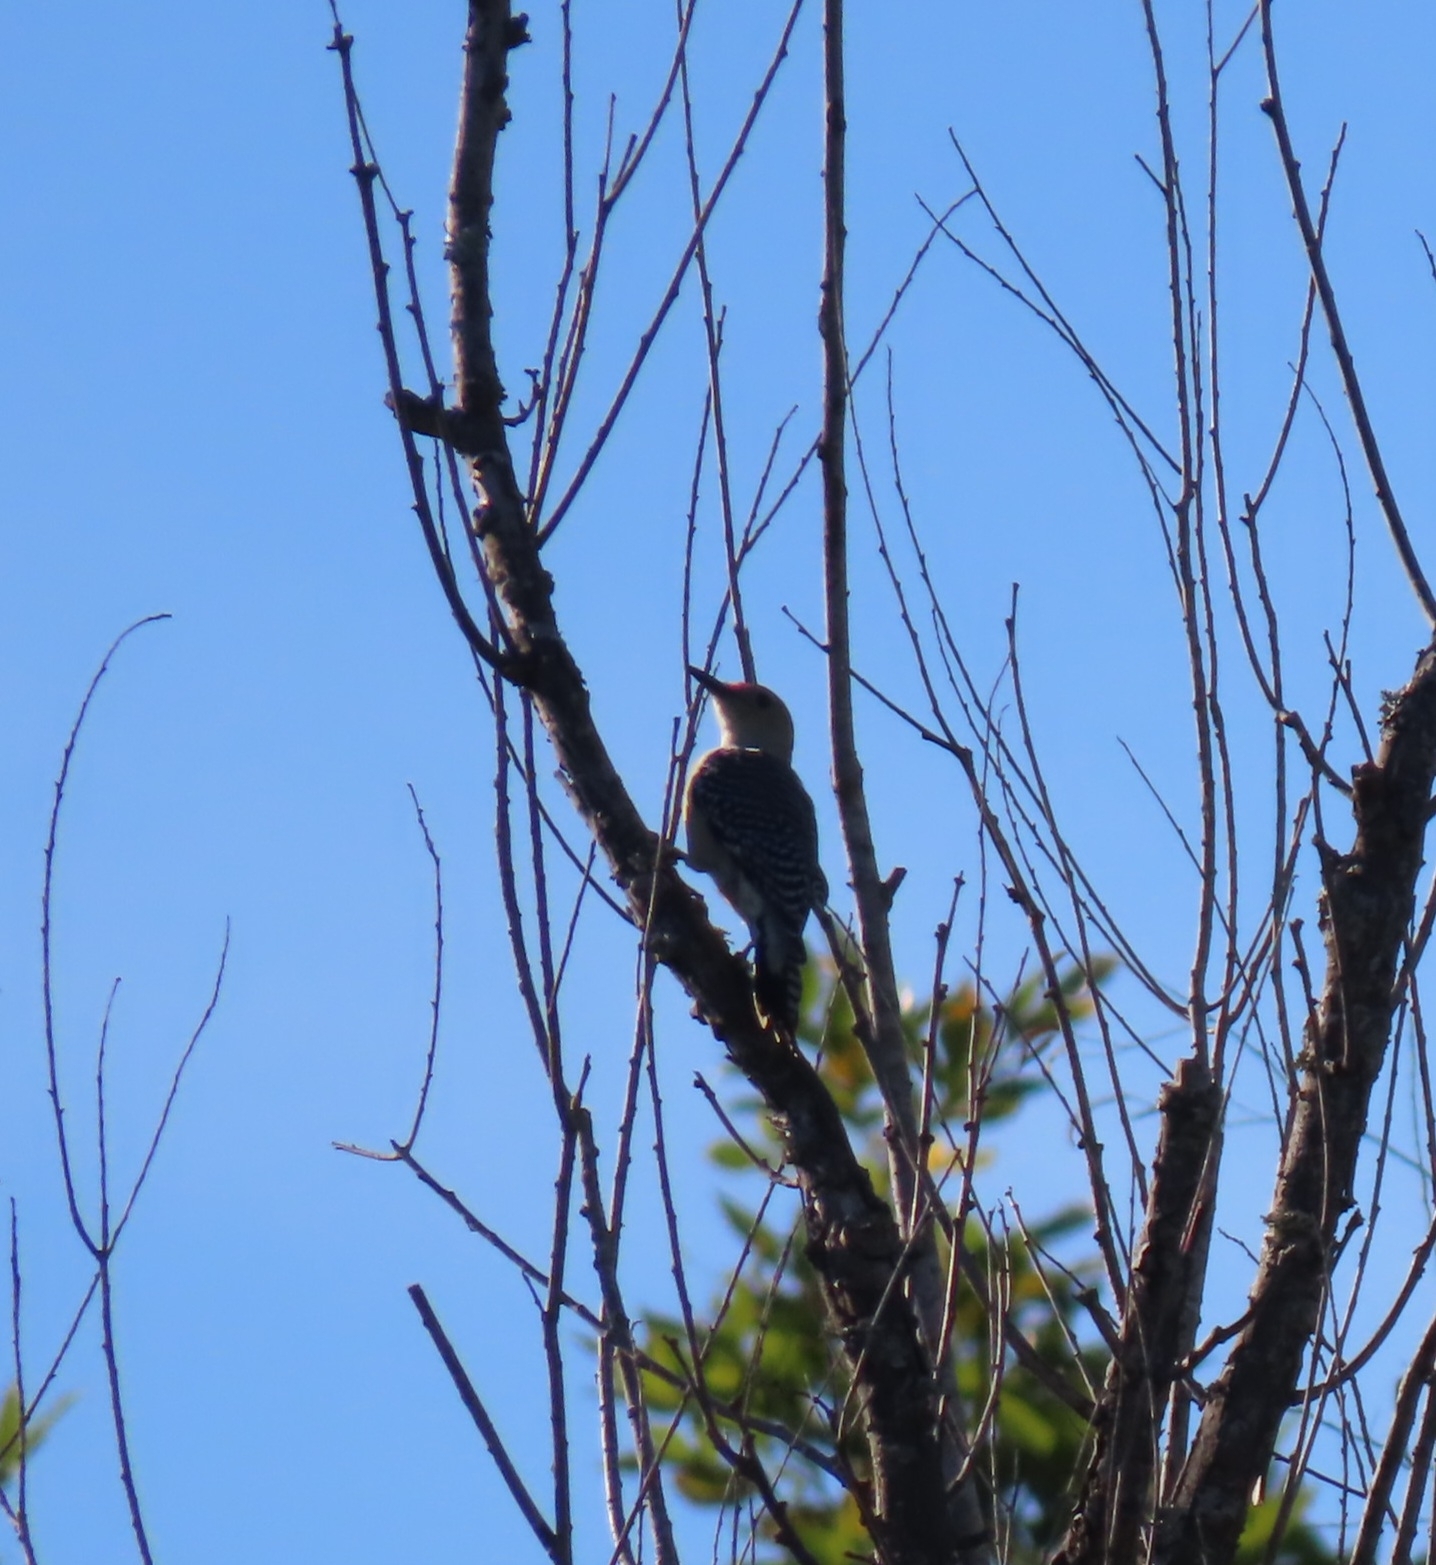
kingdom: Animalia
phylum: Chordata
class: Aves
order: Piciformes
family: Picidae
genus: Melanerpes
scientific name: Melanerpes carolinus
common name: Red-bellied woodpecker
